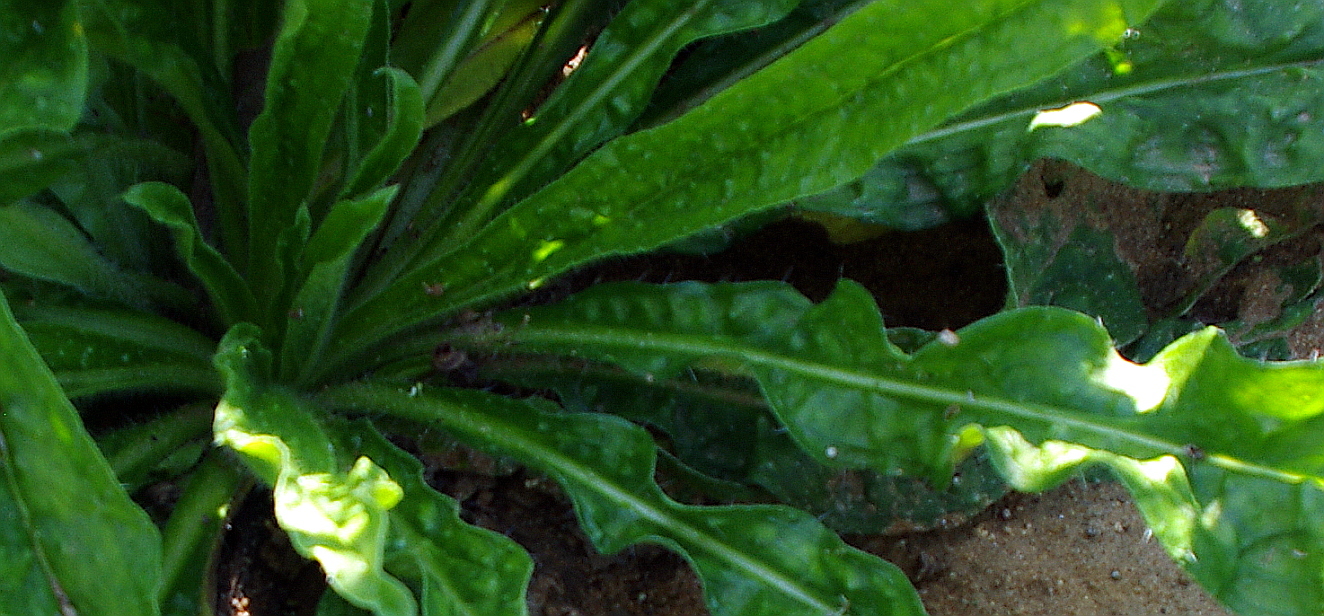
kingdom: Plantae
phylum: Tracheophyta
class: Magnoliopsida
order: Boraginales
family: Boraginaceae
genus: Echium
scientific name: Echium vulgare
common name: Common viper's bugloss
